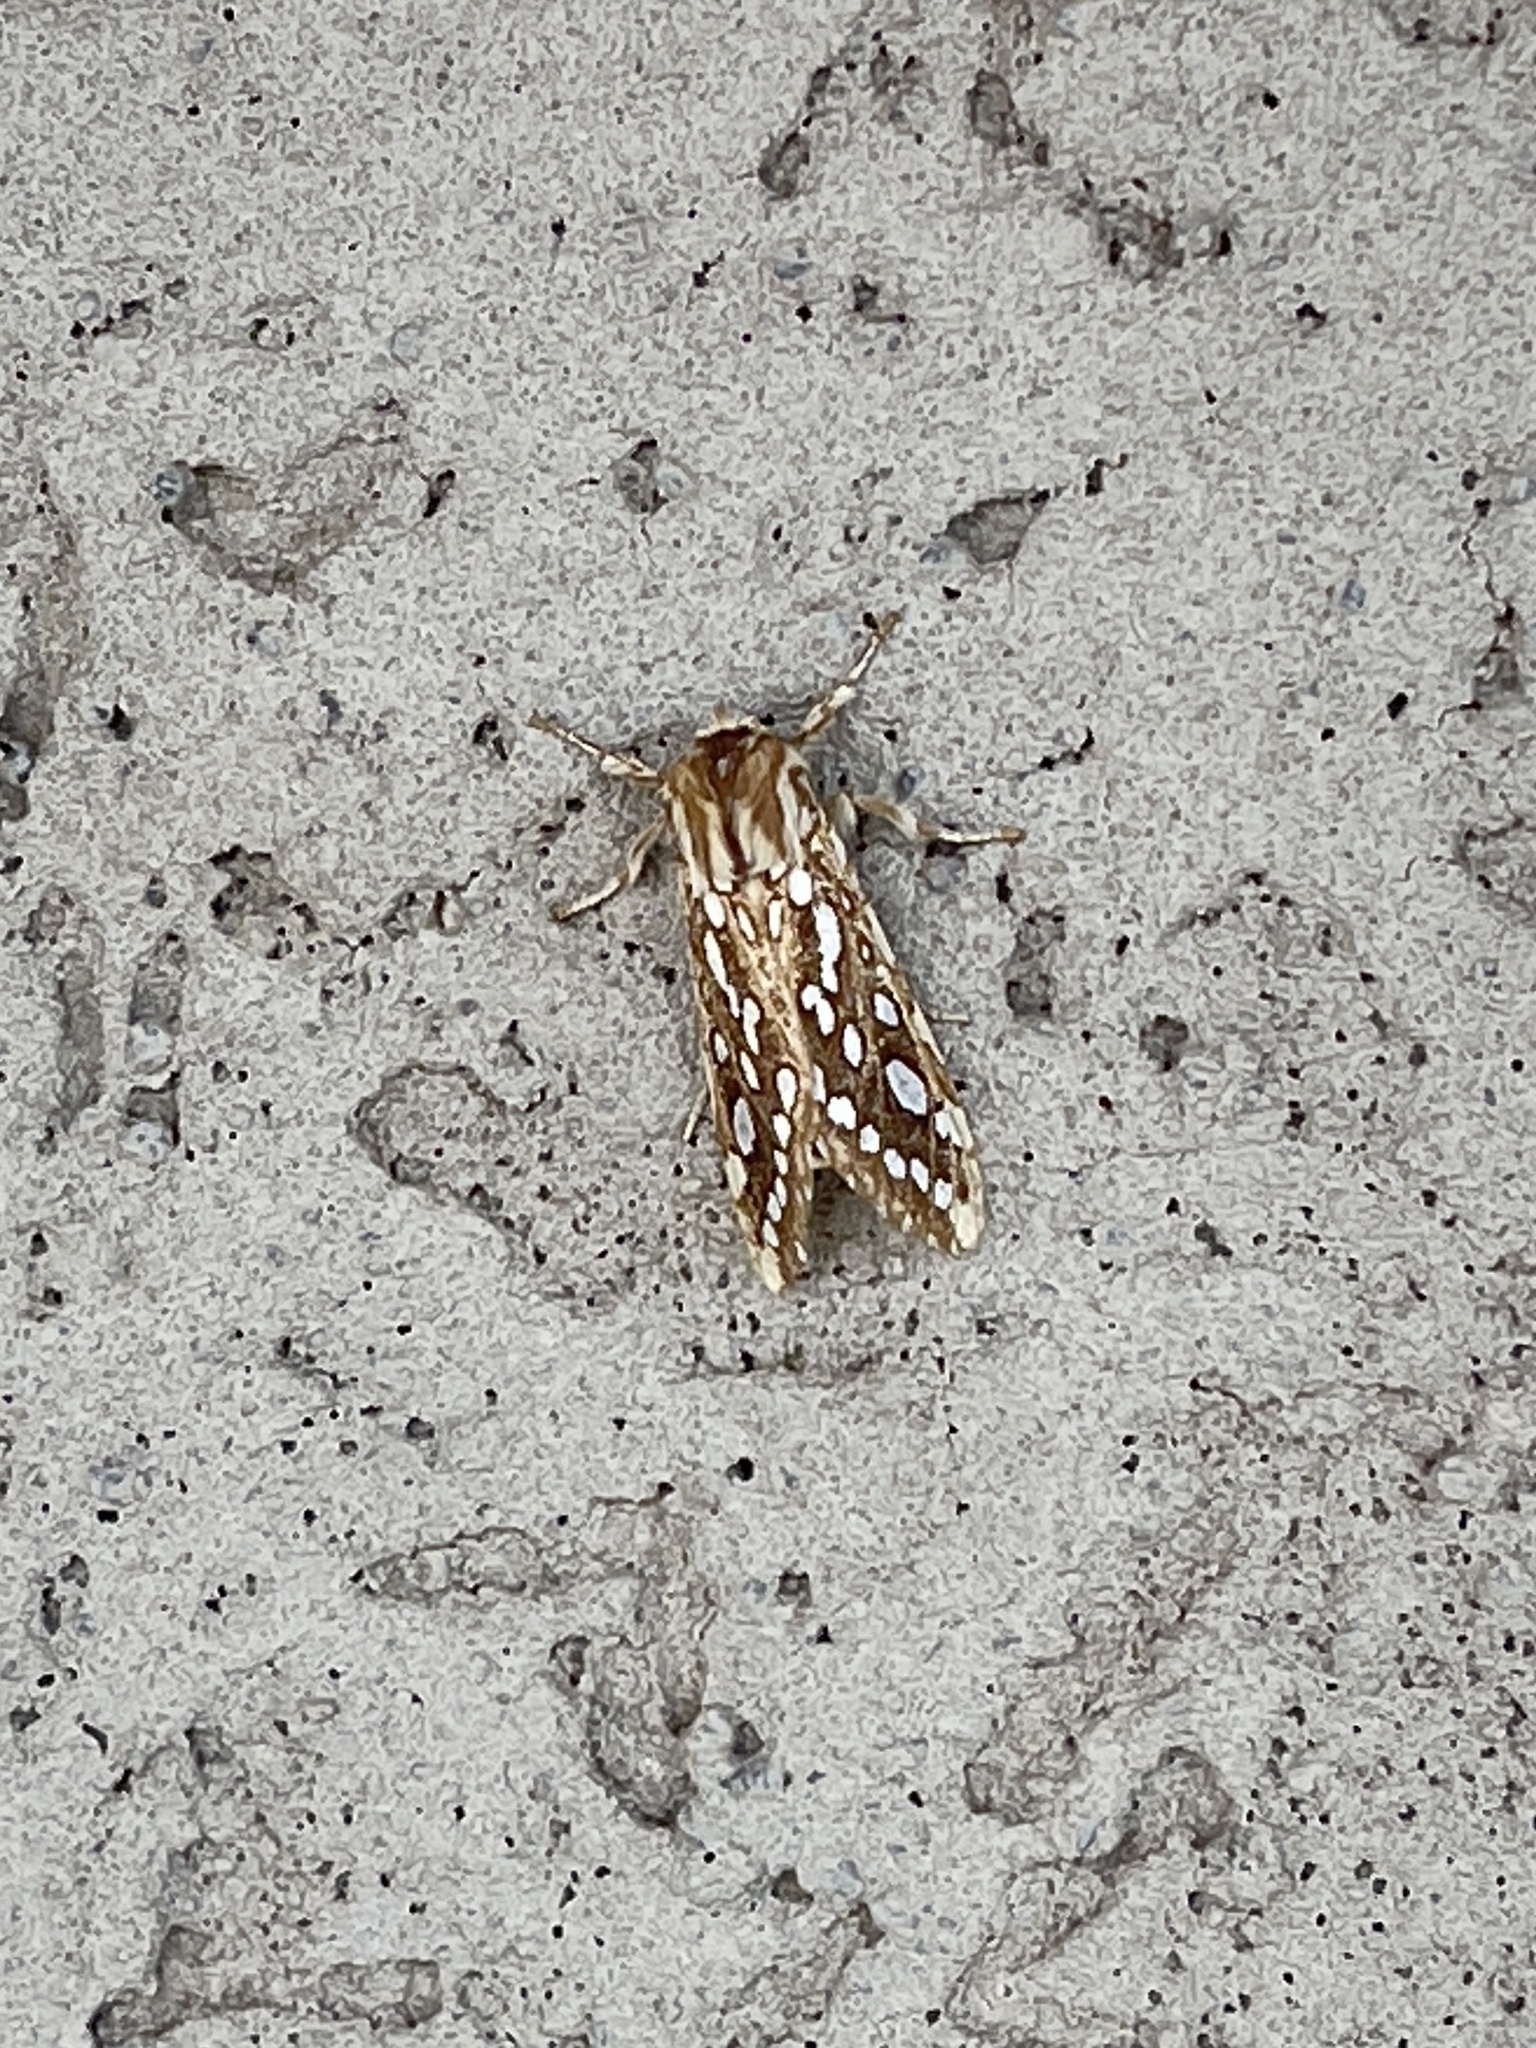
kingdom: Animalia
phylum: Arthropoda
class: Insecta
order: Lepidoptera
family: Erebidae
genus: Lophocampa
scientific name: Lophocampa argentata
